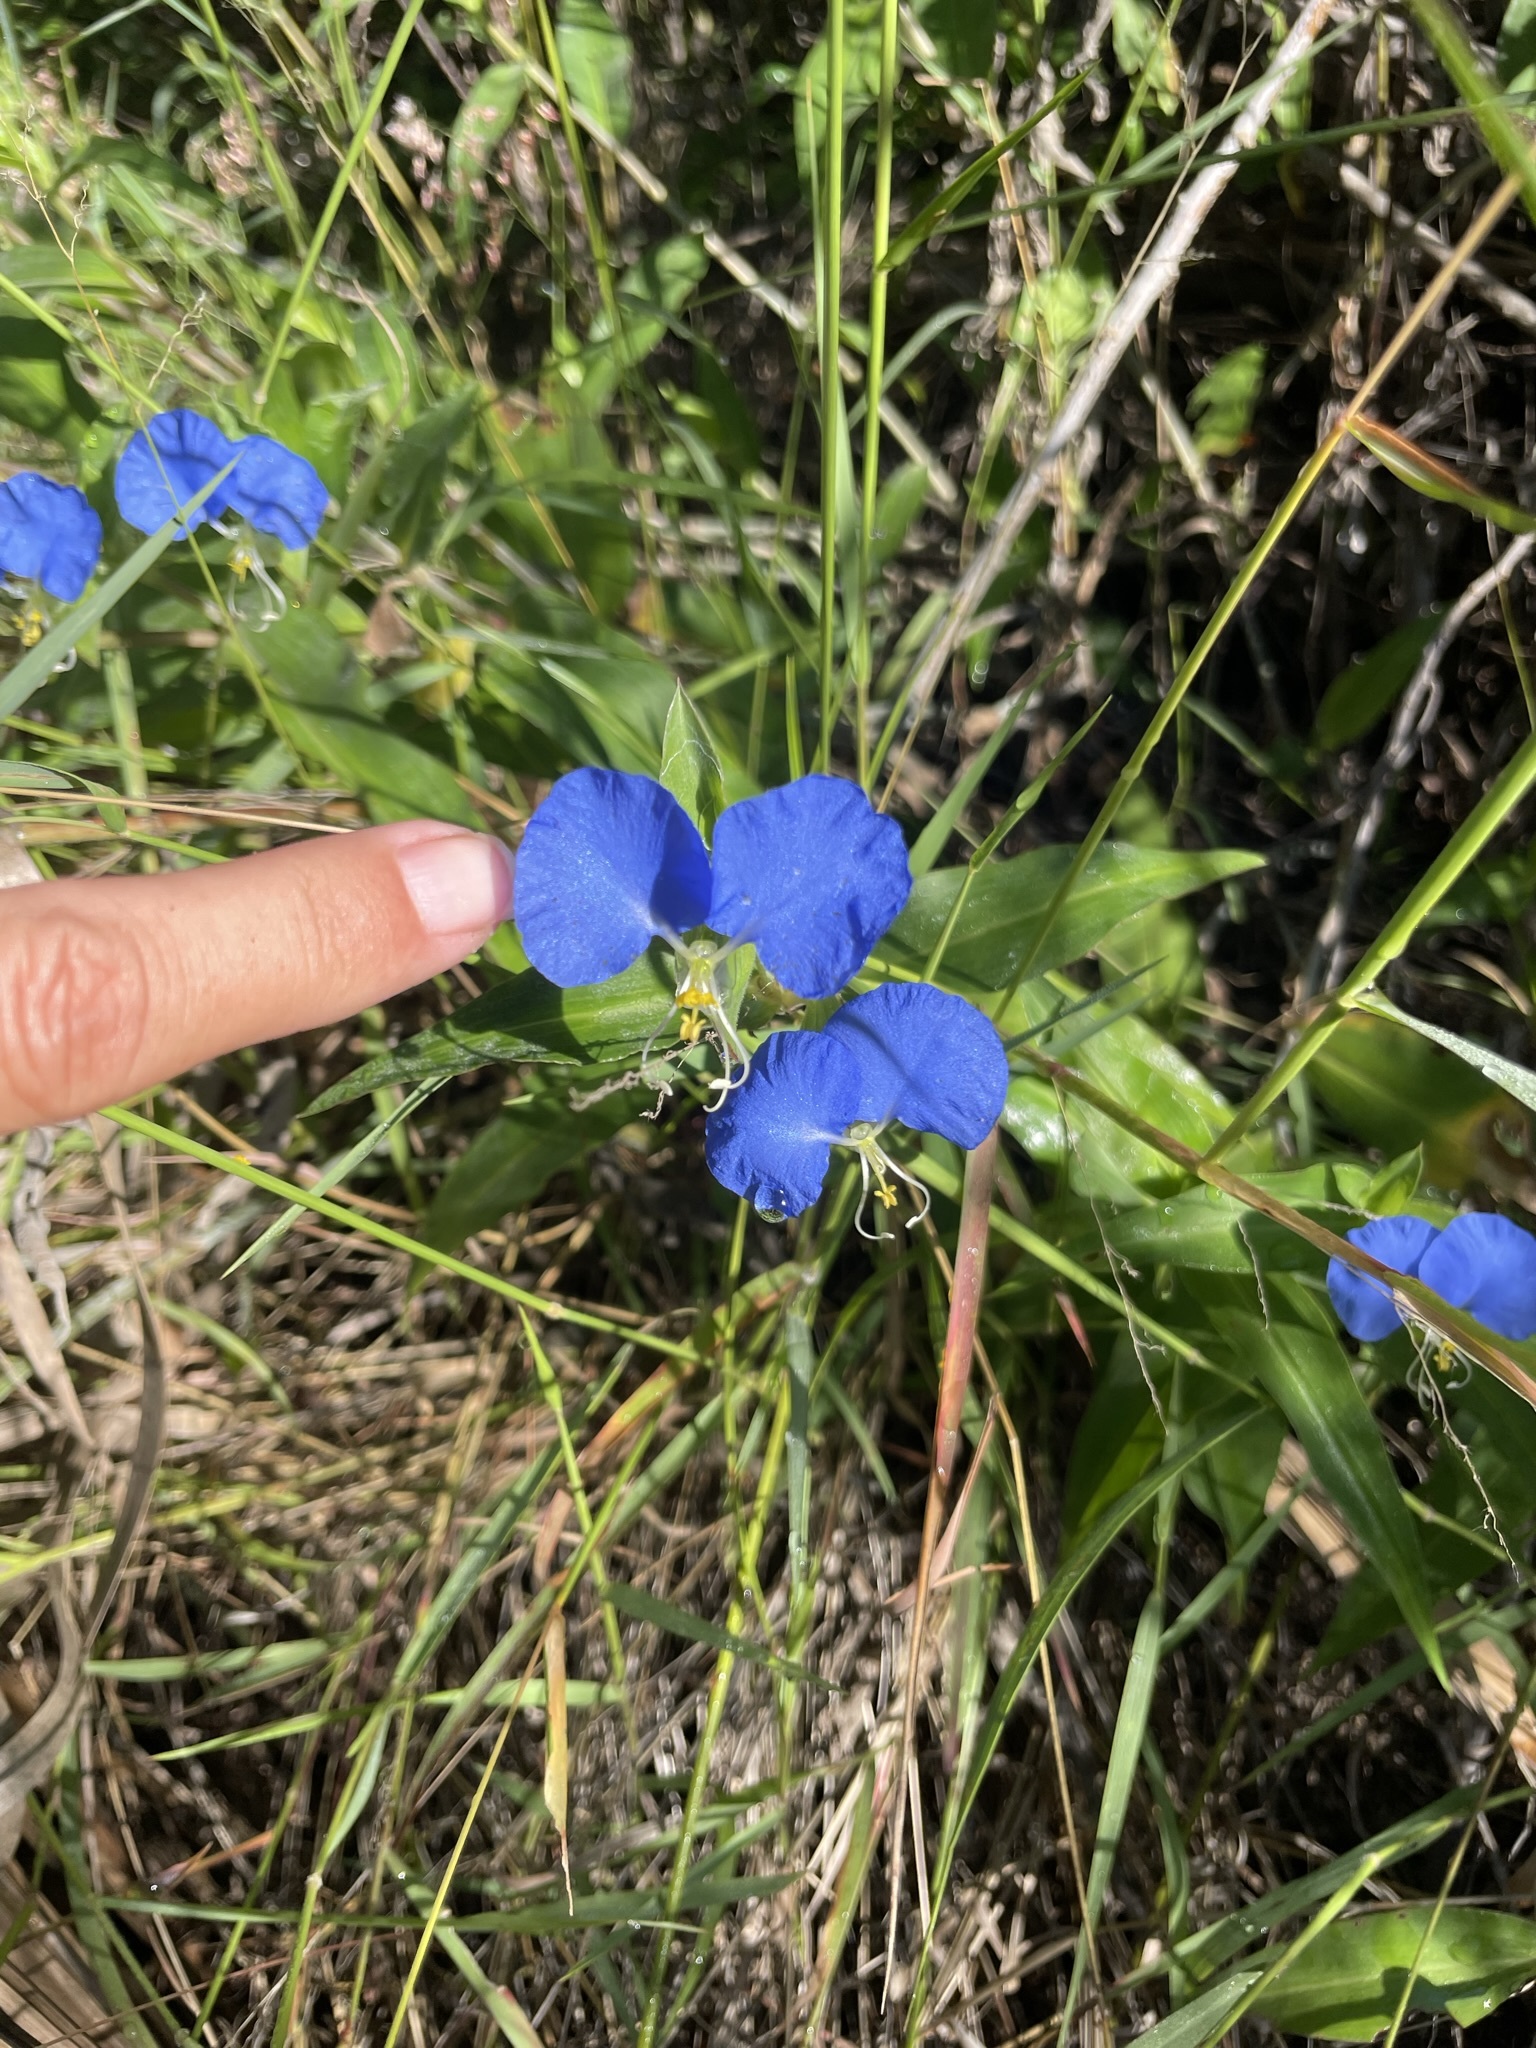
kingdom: Plantae
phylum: Tracheophyta
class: Liliopsida
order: Commelinales
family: Commelinaceae
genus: Commelina
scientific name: Commelina erecta
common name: Blousel blommetjie
